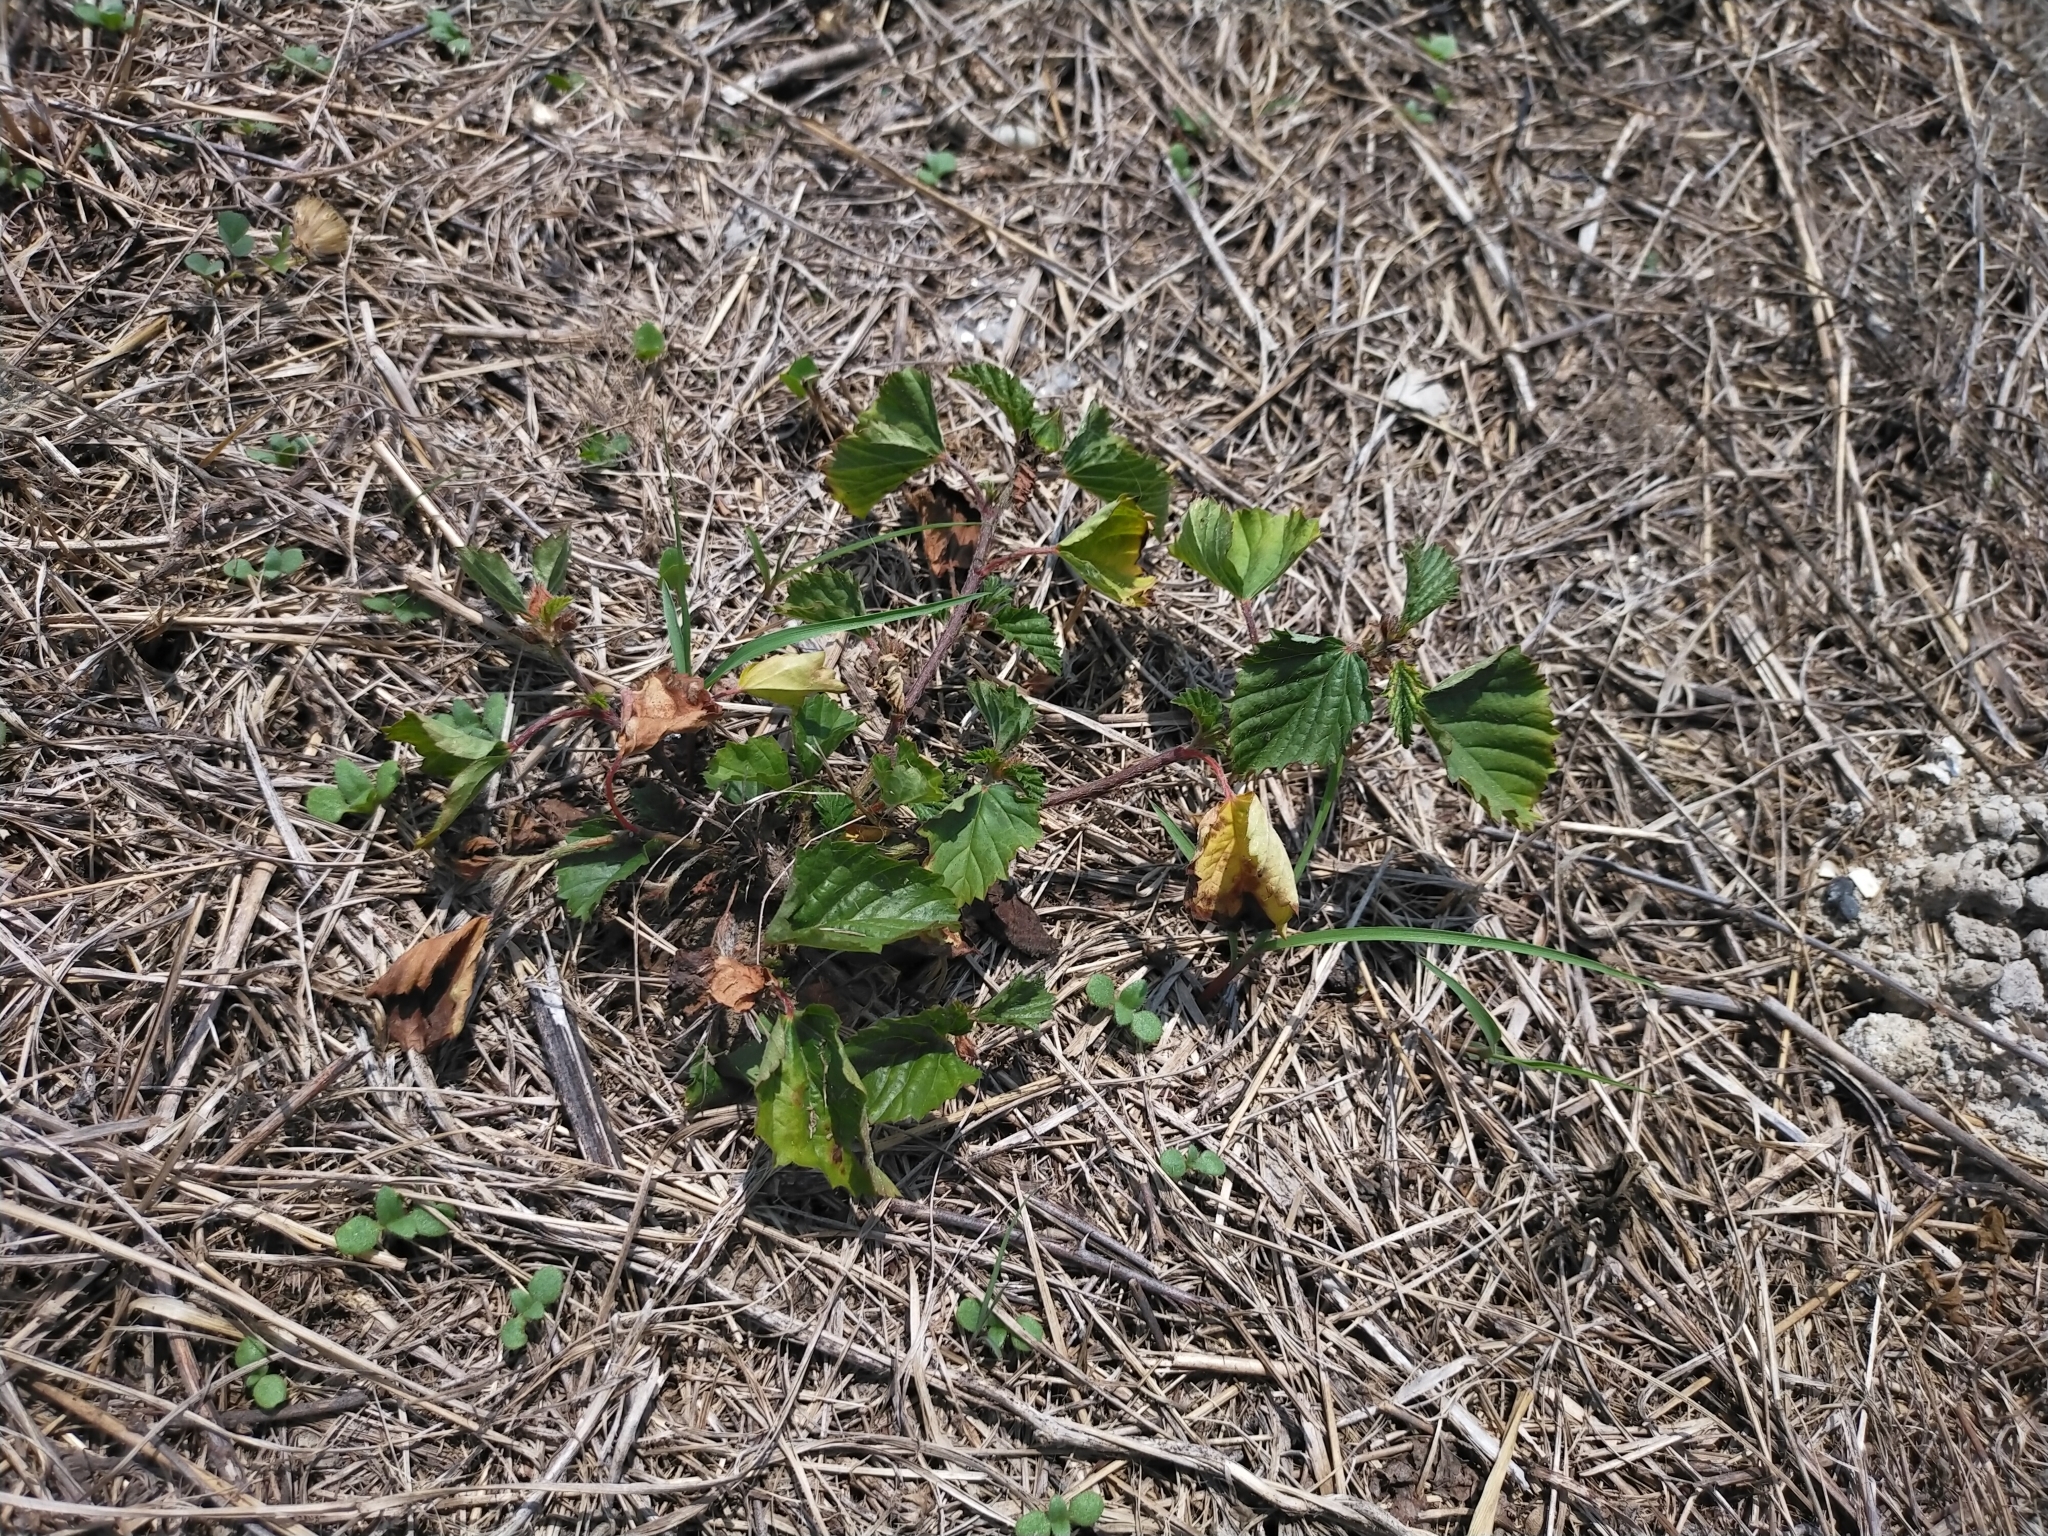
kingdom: Plantae
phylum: Tracheophyta
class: Magnoliopsida
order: Malvales
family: Malvaceae
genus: Malvastrum
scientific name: Malvastrum coromandelianum
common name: Threelobe false mallow
